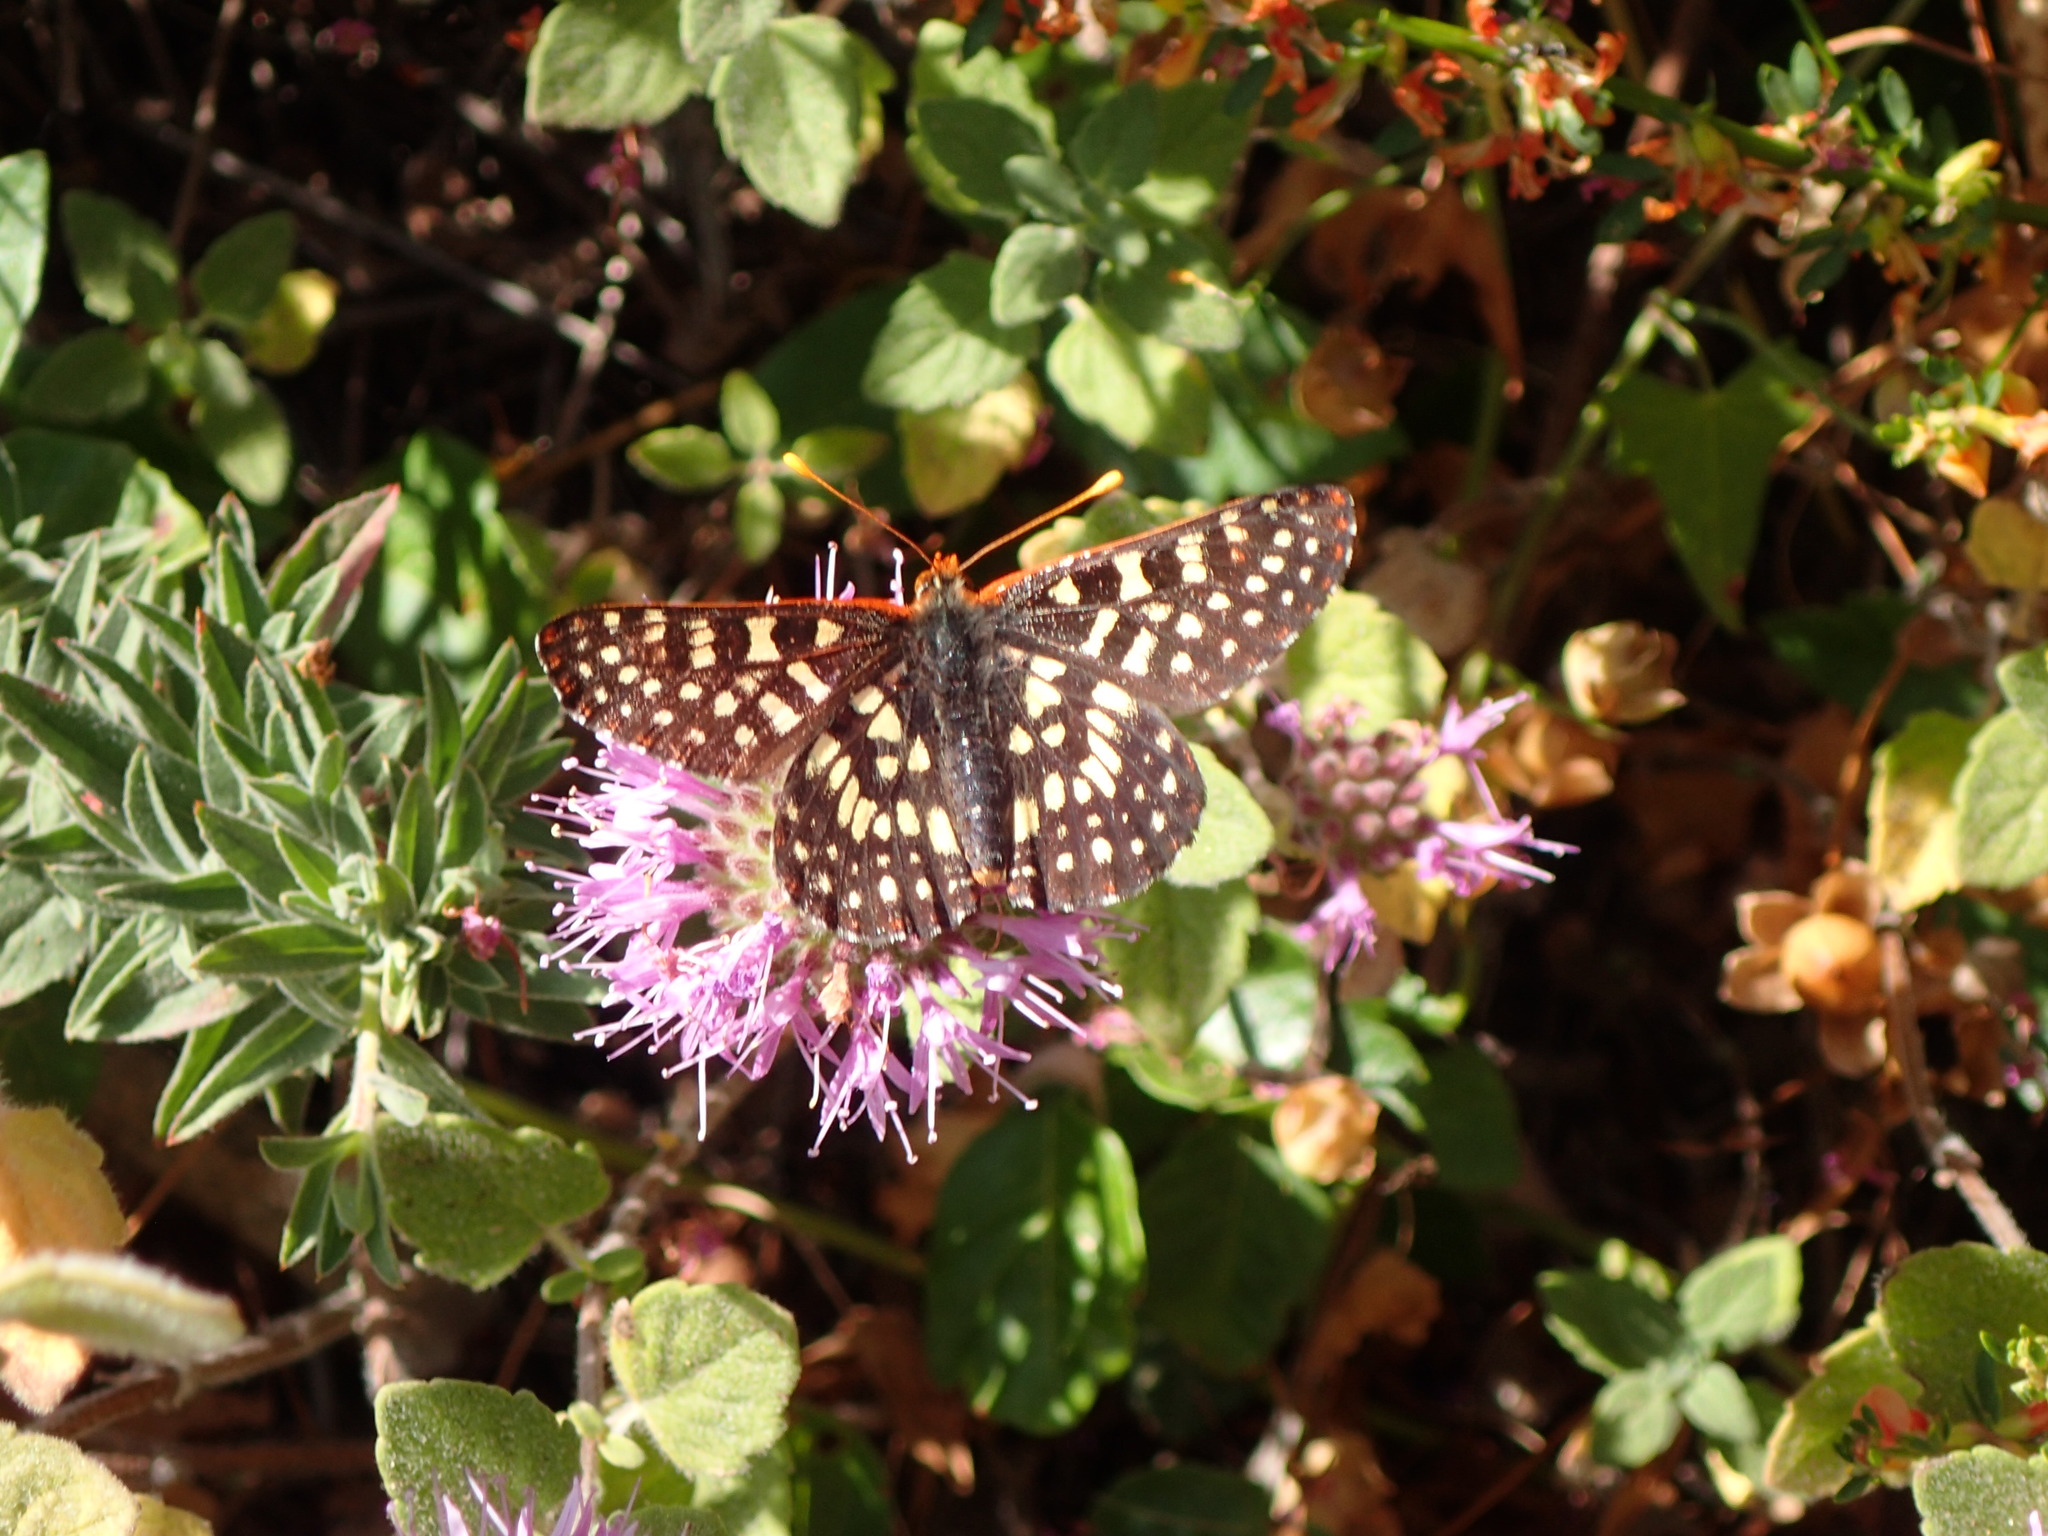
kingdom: Plantae
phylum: Tracheophyta
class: Magnoliopsida
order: Lamiales
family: Lamiaceae
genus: Monardella
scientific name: Monardella odoratissima
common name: Pacific monardella
